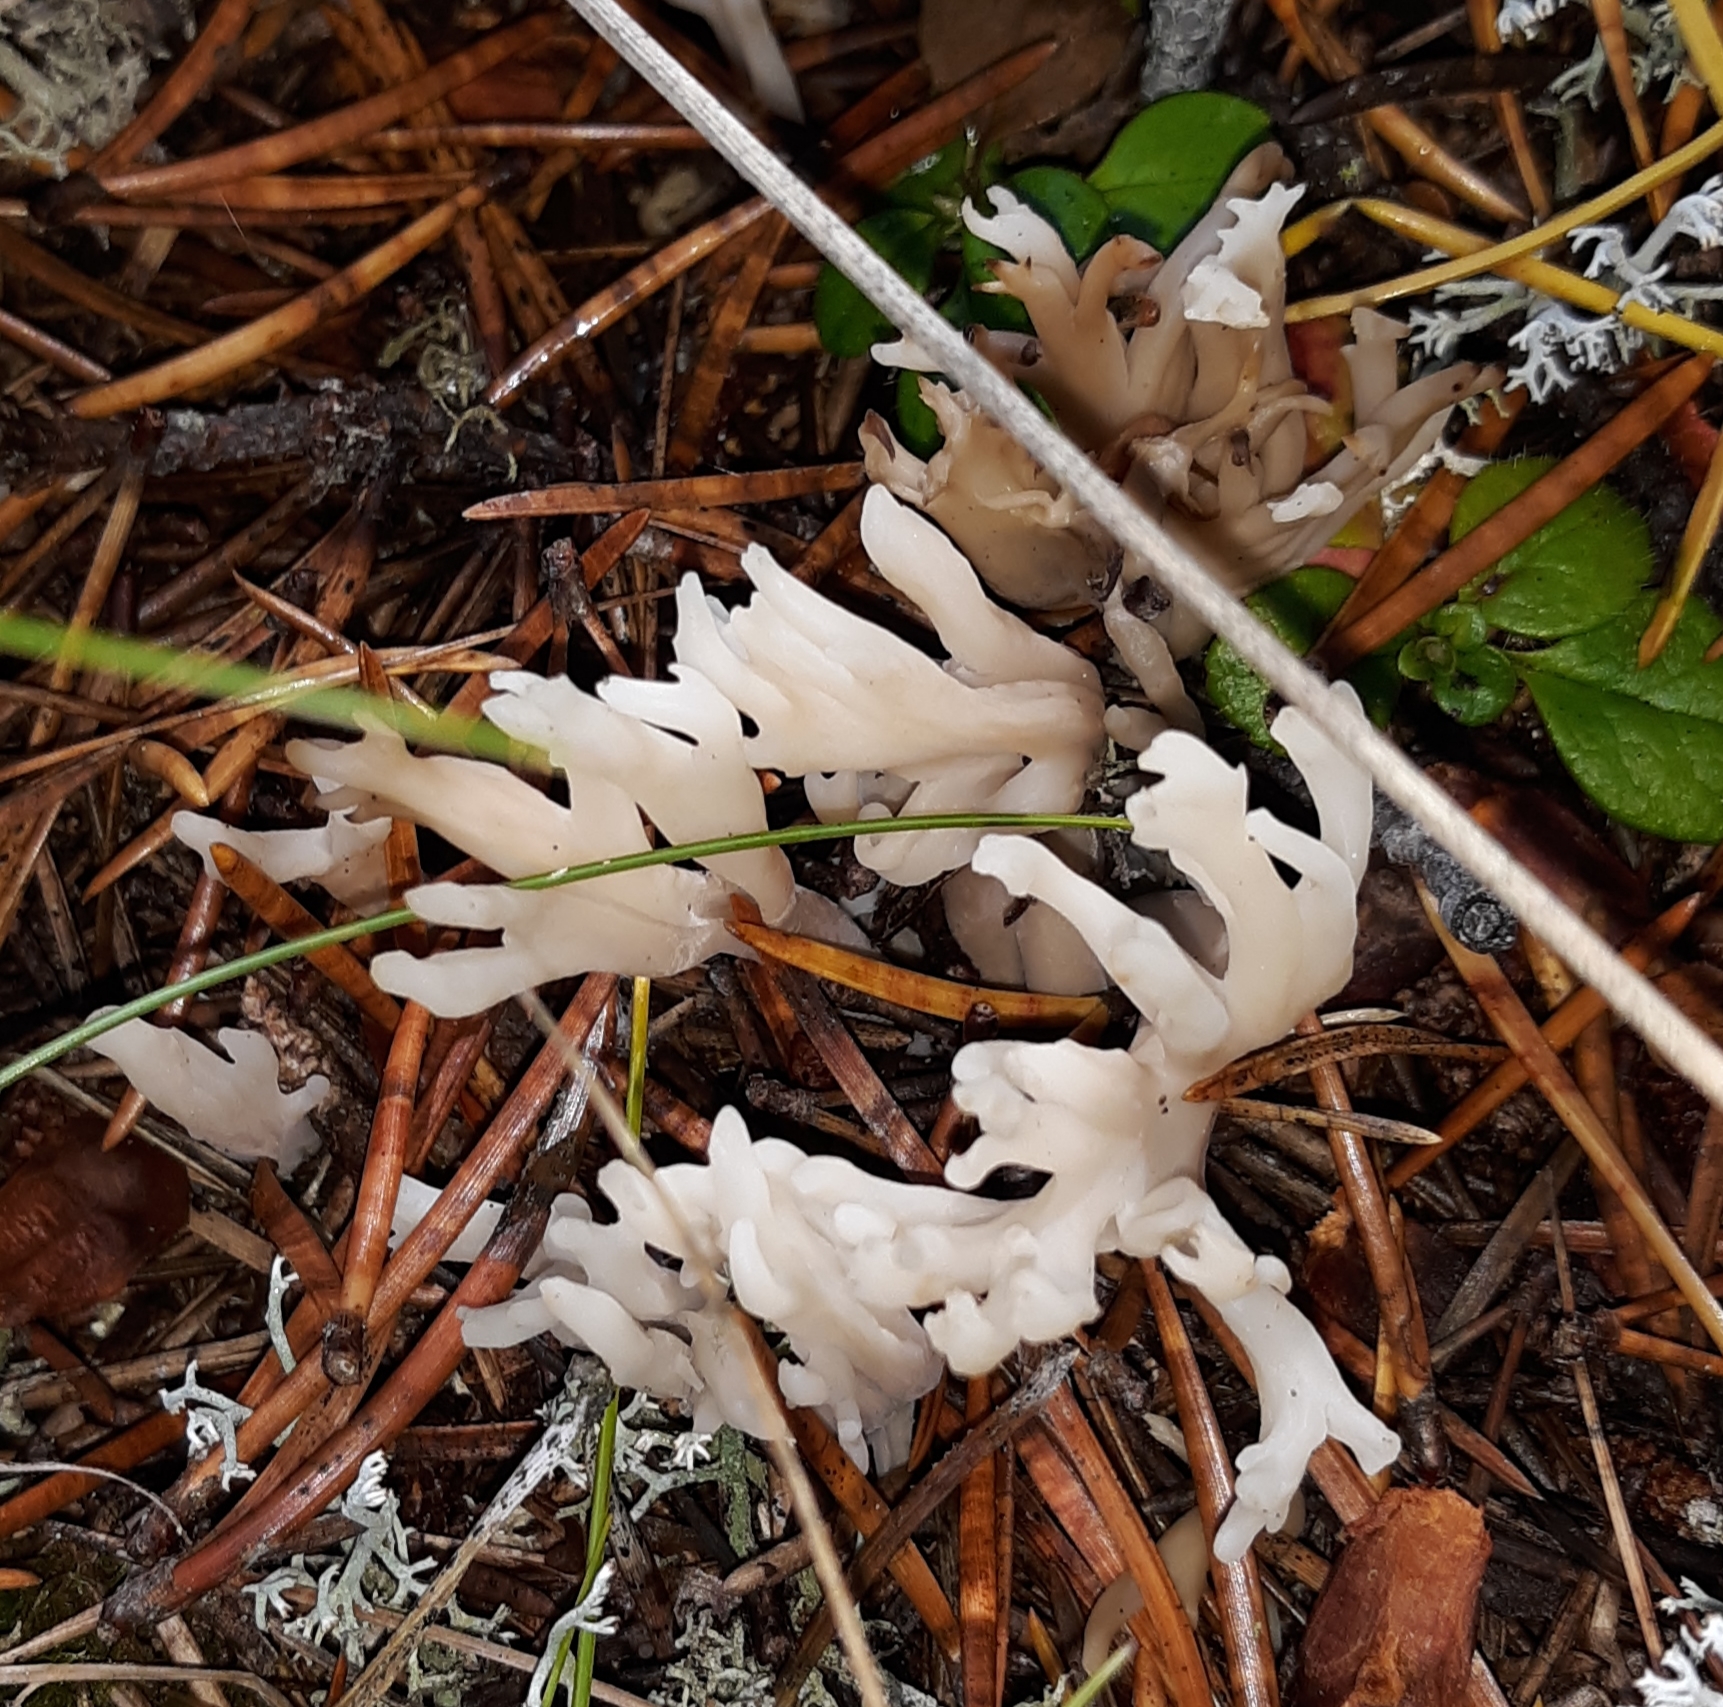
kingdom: Fungi
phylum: Basidiomycota
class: Agaricomycetes
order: Cantharellales
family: Hydnaceae
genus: Clavulina
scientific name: Clavulina coralloides
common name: Crested coral
